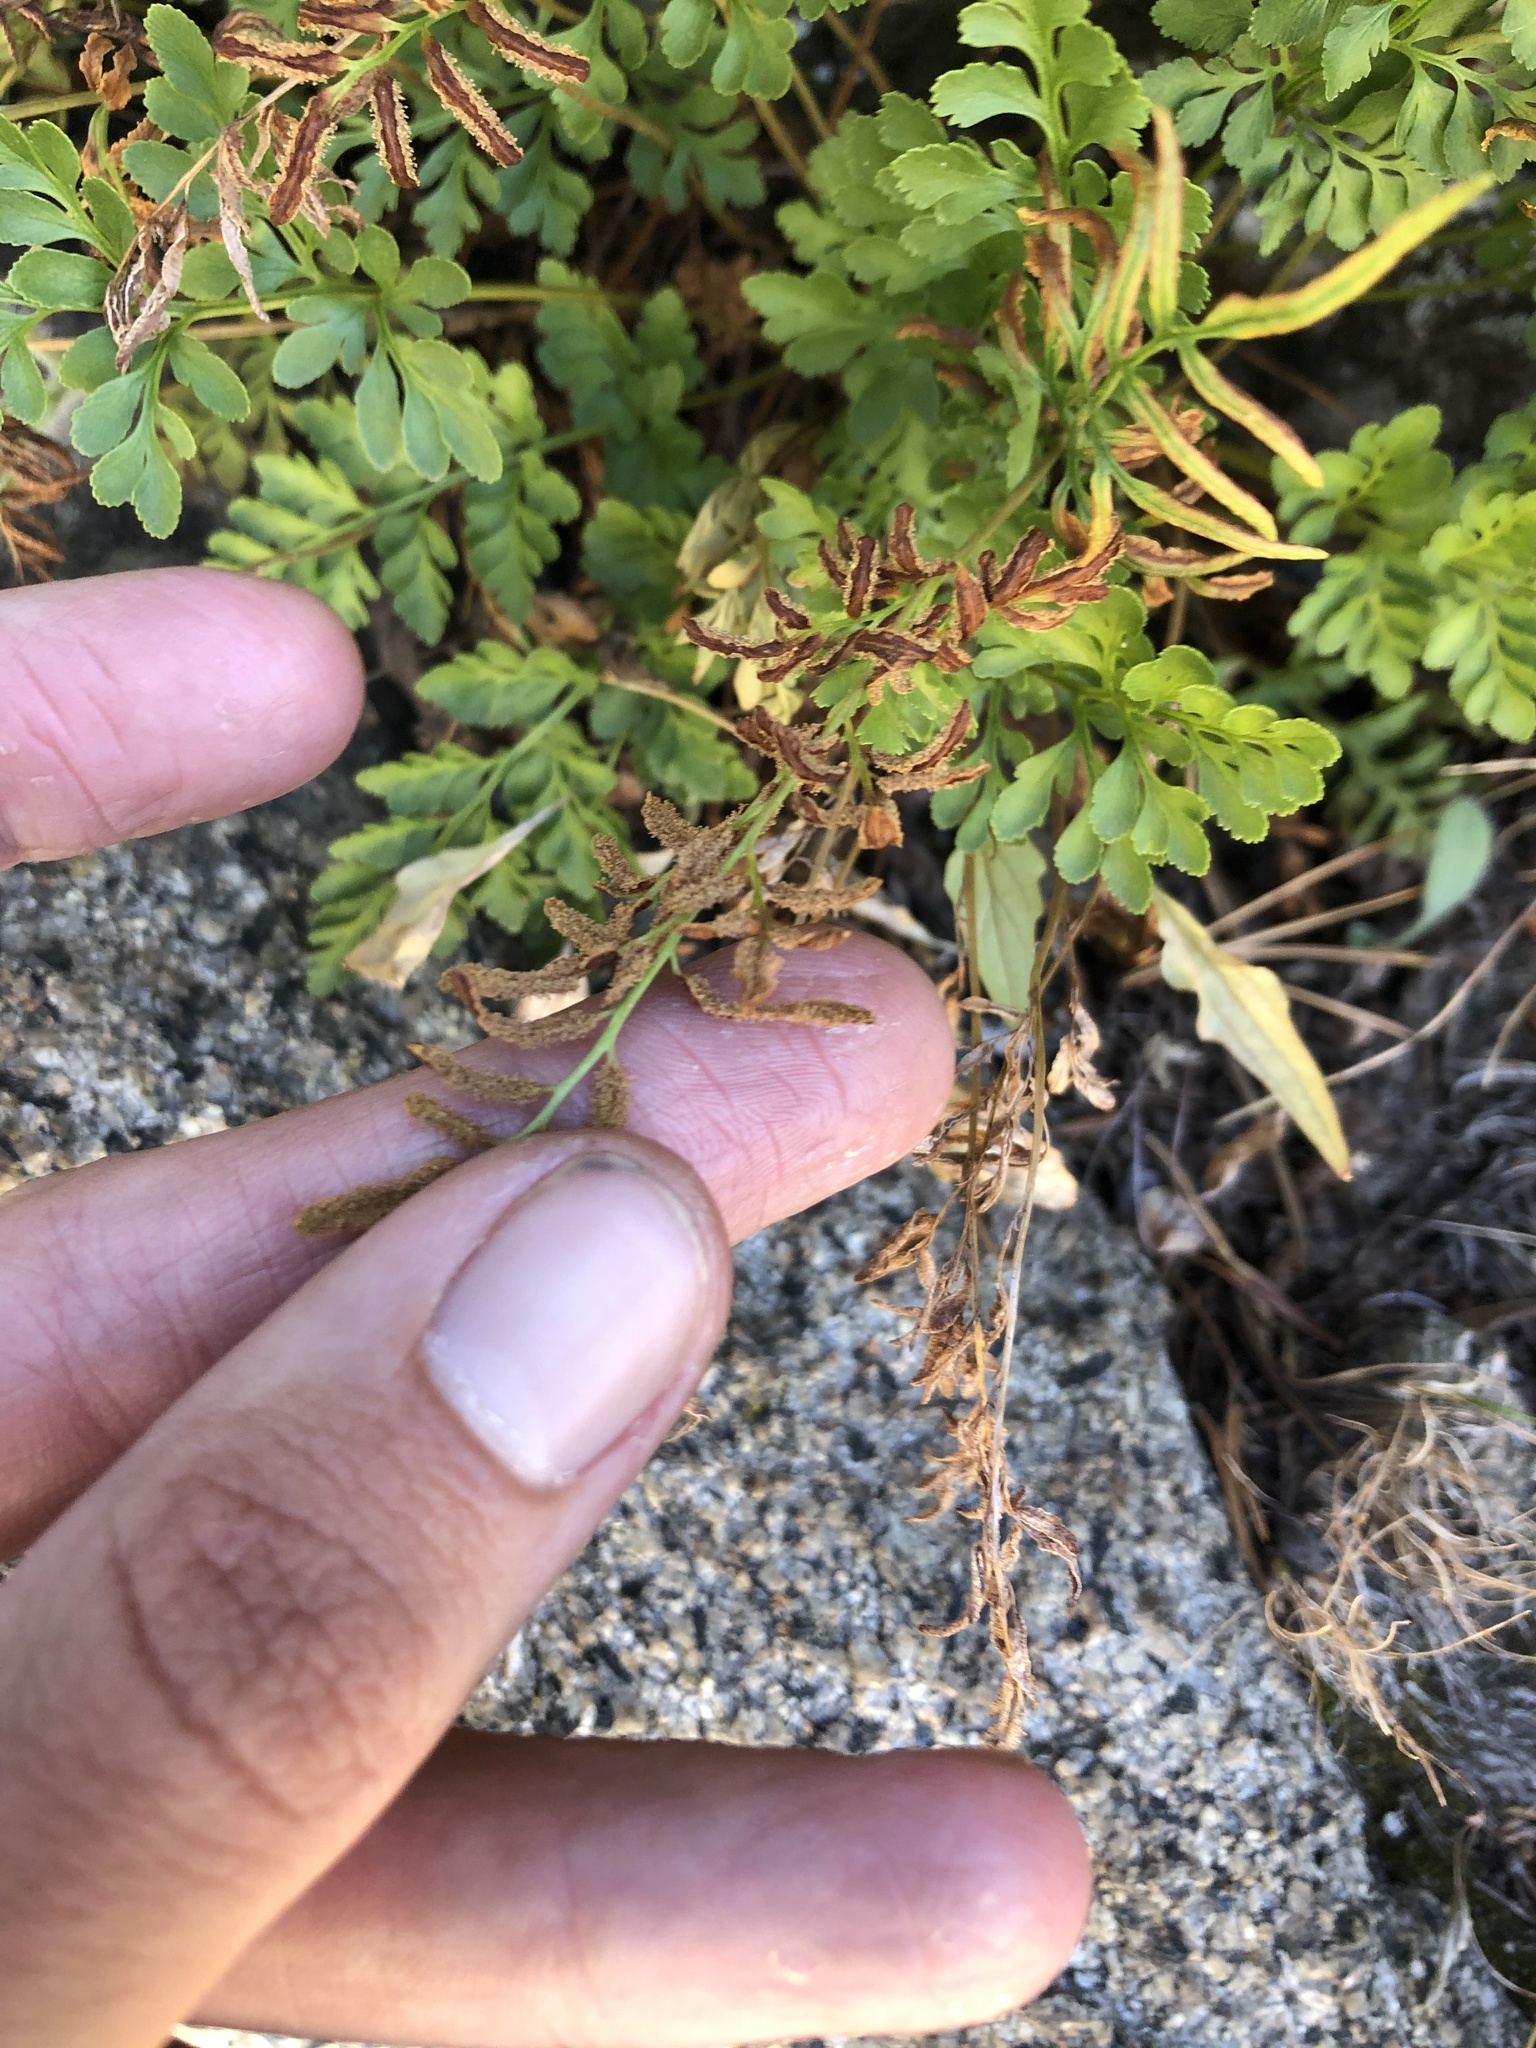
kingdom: Plantae
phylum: Tracheophyta
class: Polypodiopsida
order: Polypodiales
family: Pteridaceae
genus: Cryptogramma
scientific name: Cryptogramma acrostichoides
